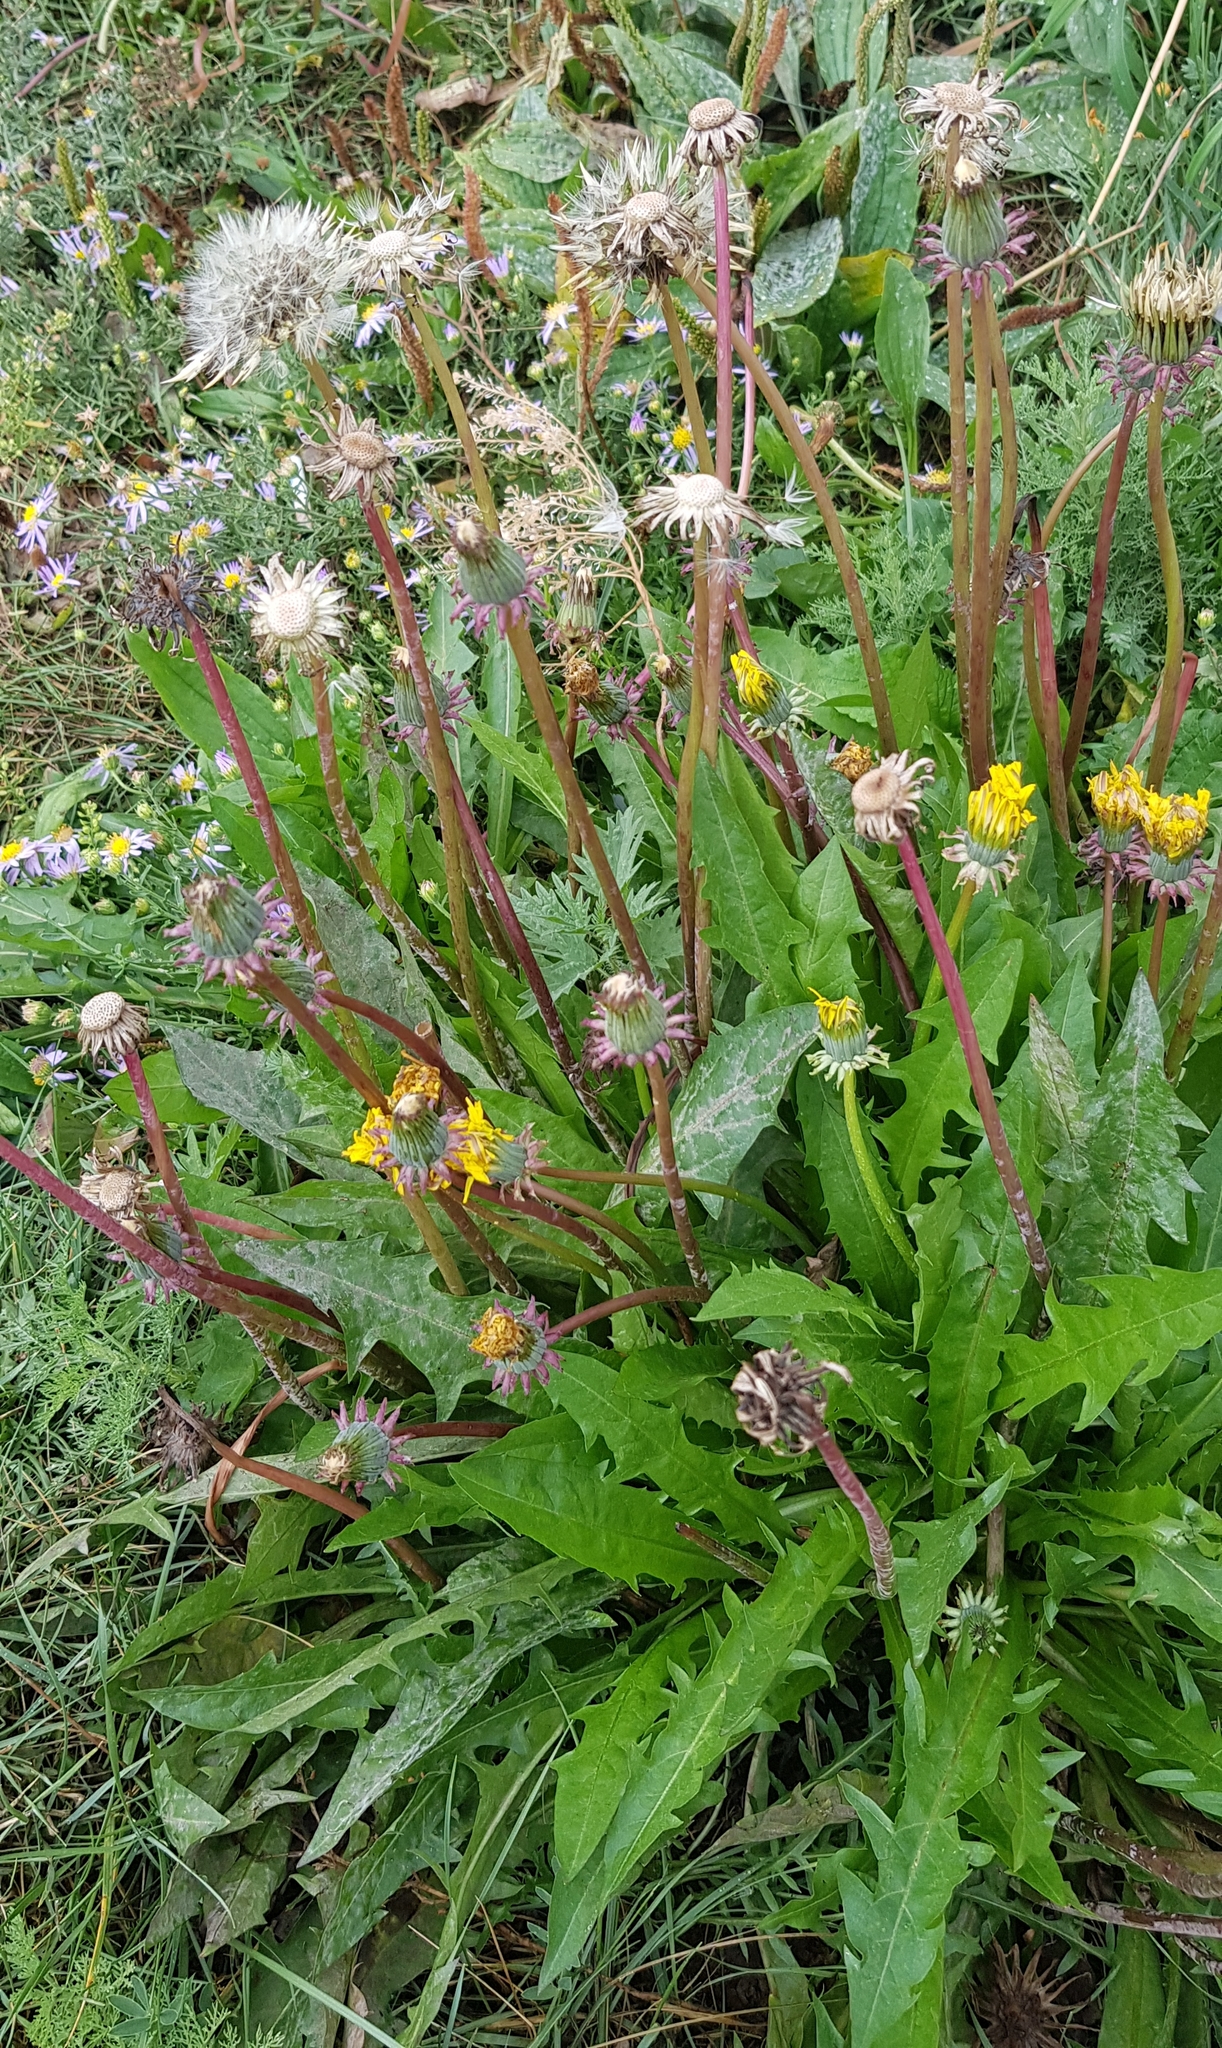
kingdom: Plantae
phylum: Tracheophyta
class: Magnoliopsida
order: Asterales
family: Asteraceae
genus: Taraxacum
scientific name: Taraxacum dissectum
